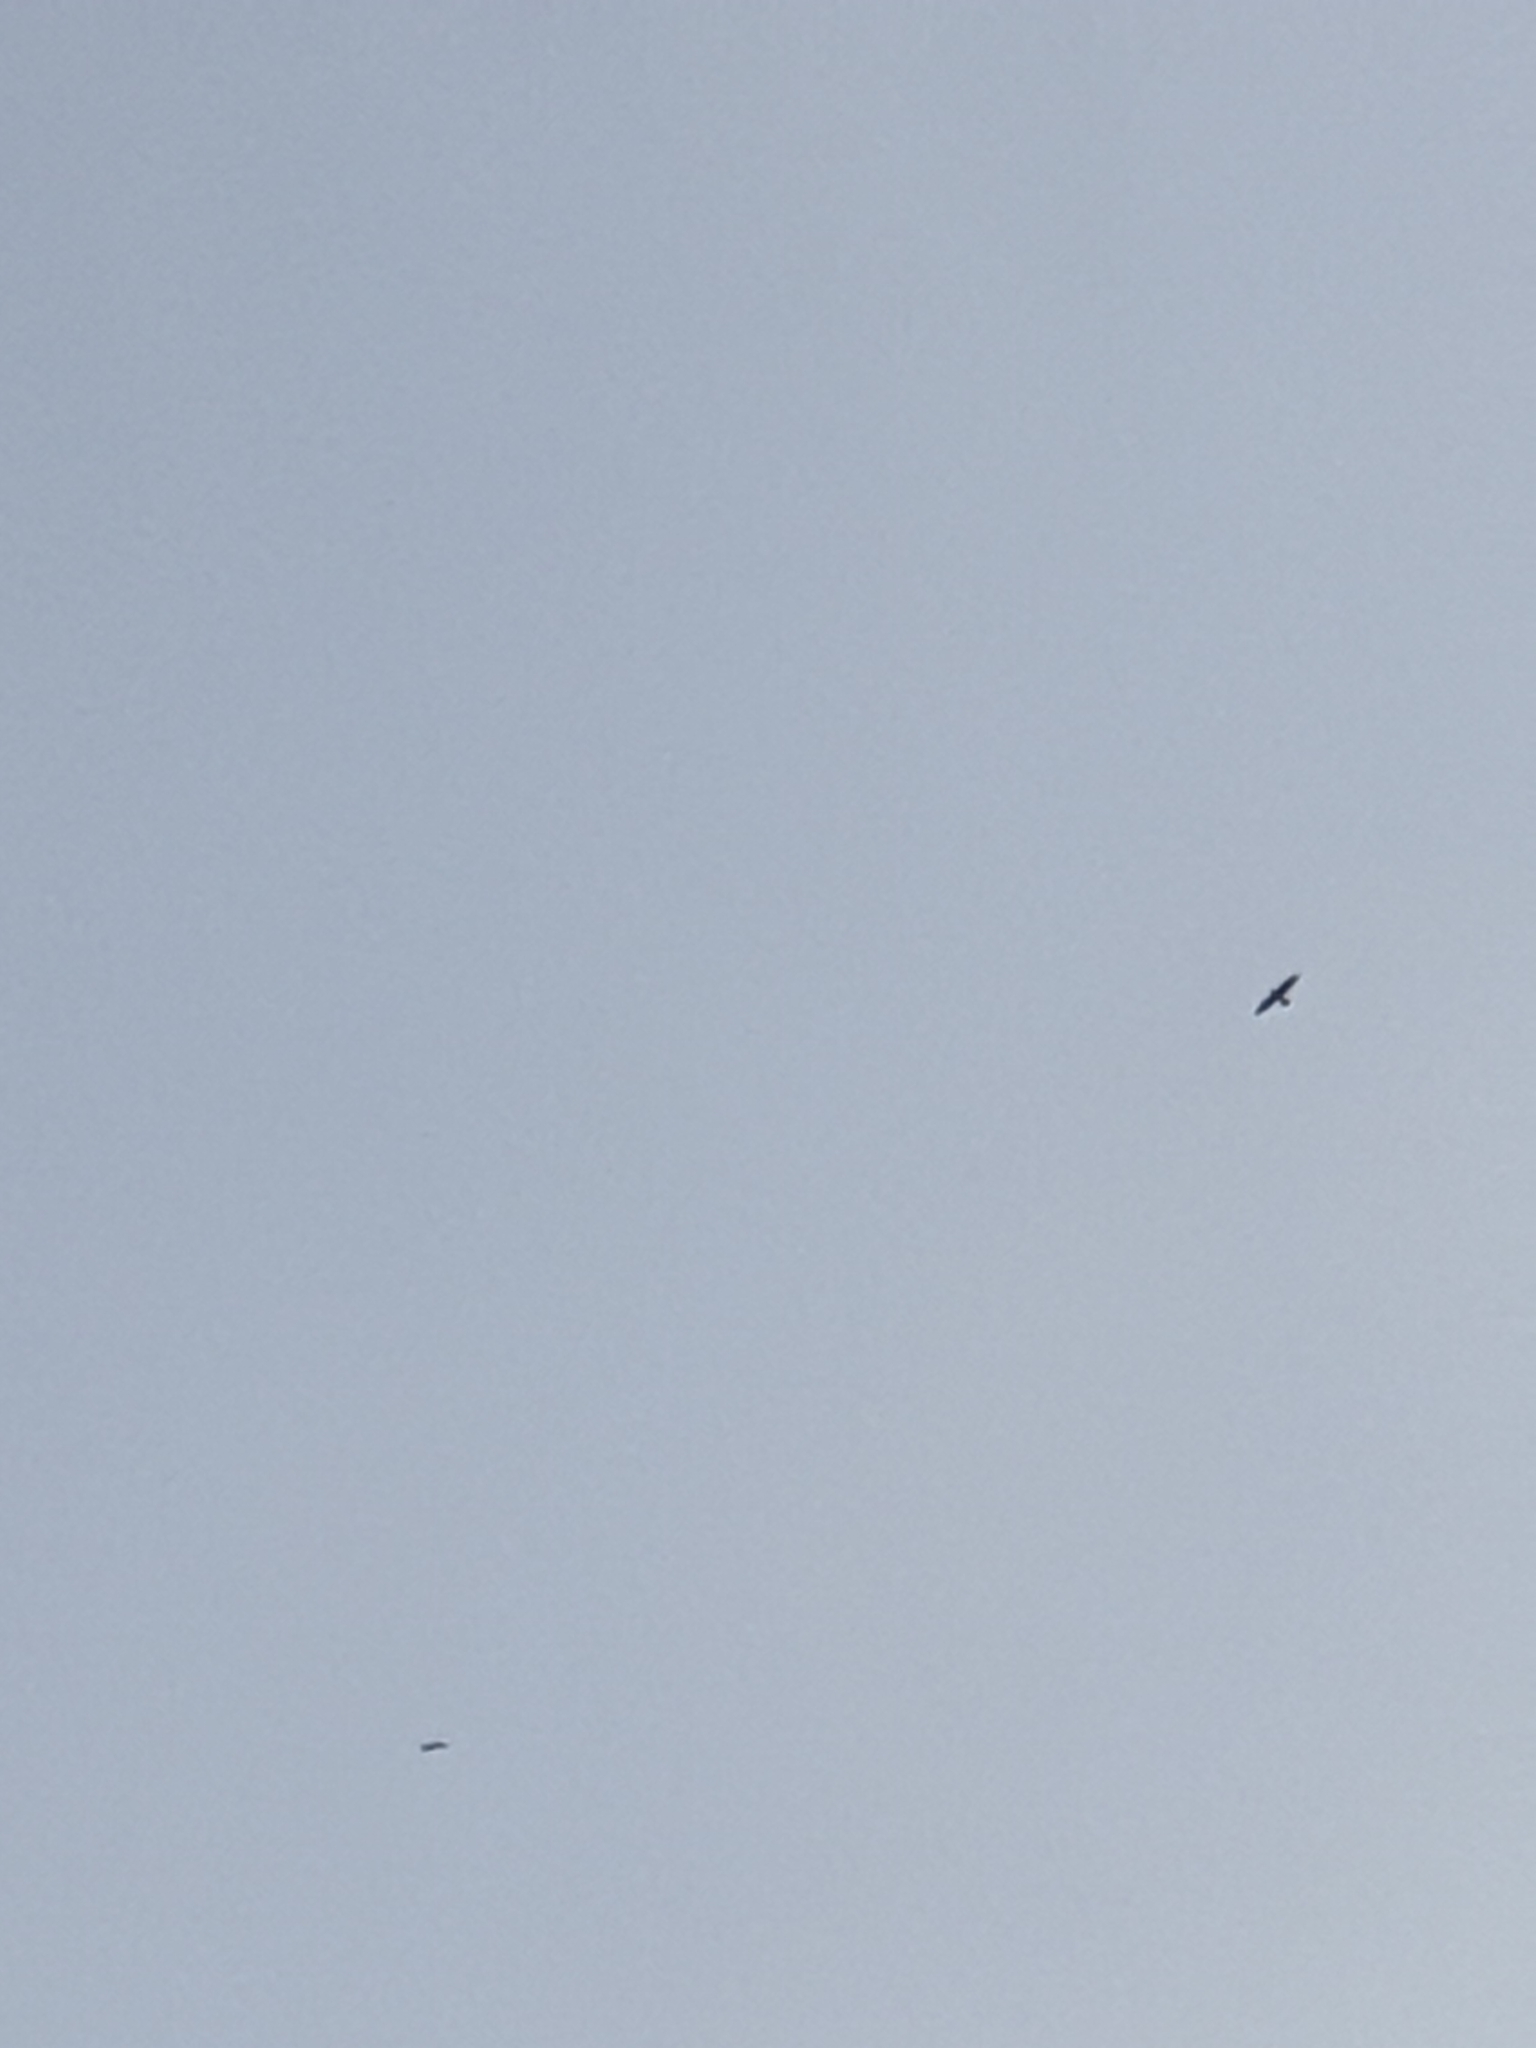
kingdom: Animalia
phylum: Chordata
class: Aves
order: Passeriformes
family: Corvidae
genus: Corvus
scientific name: Corvus corax
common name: Common raven
